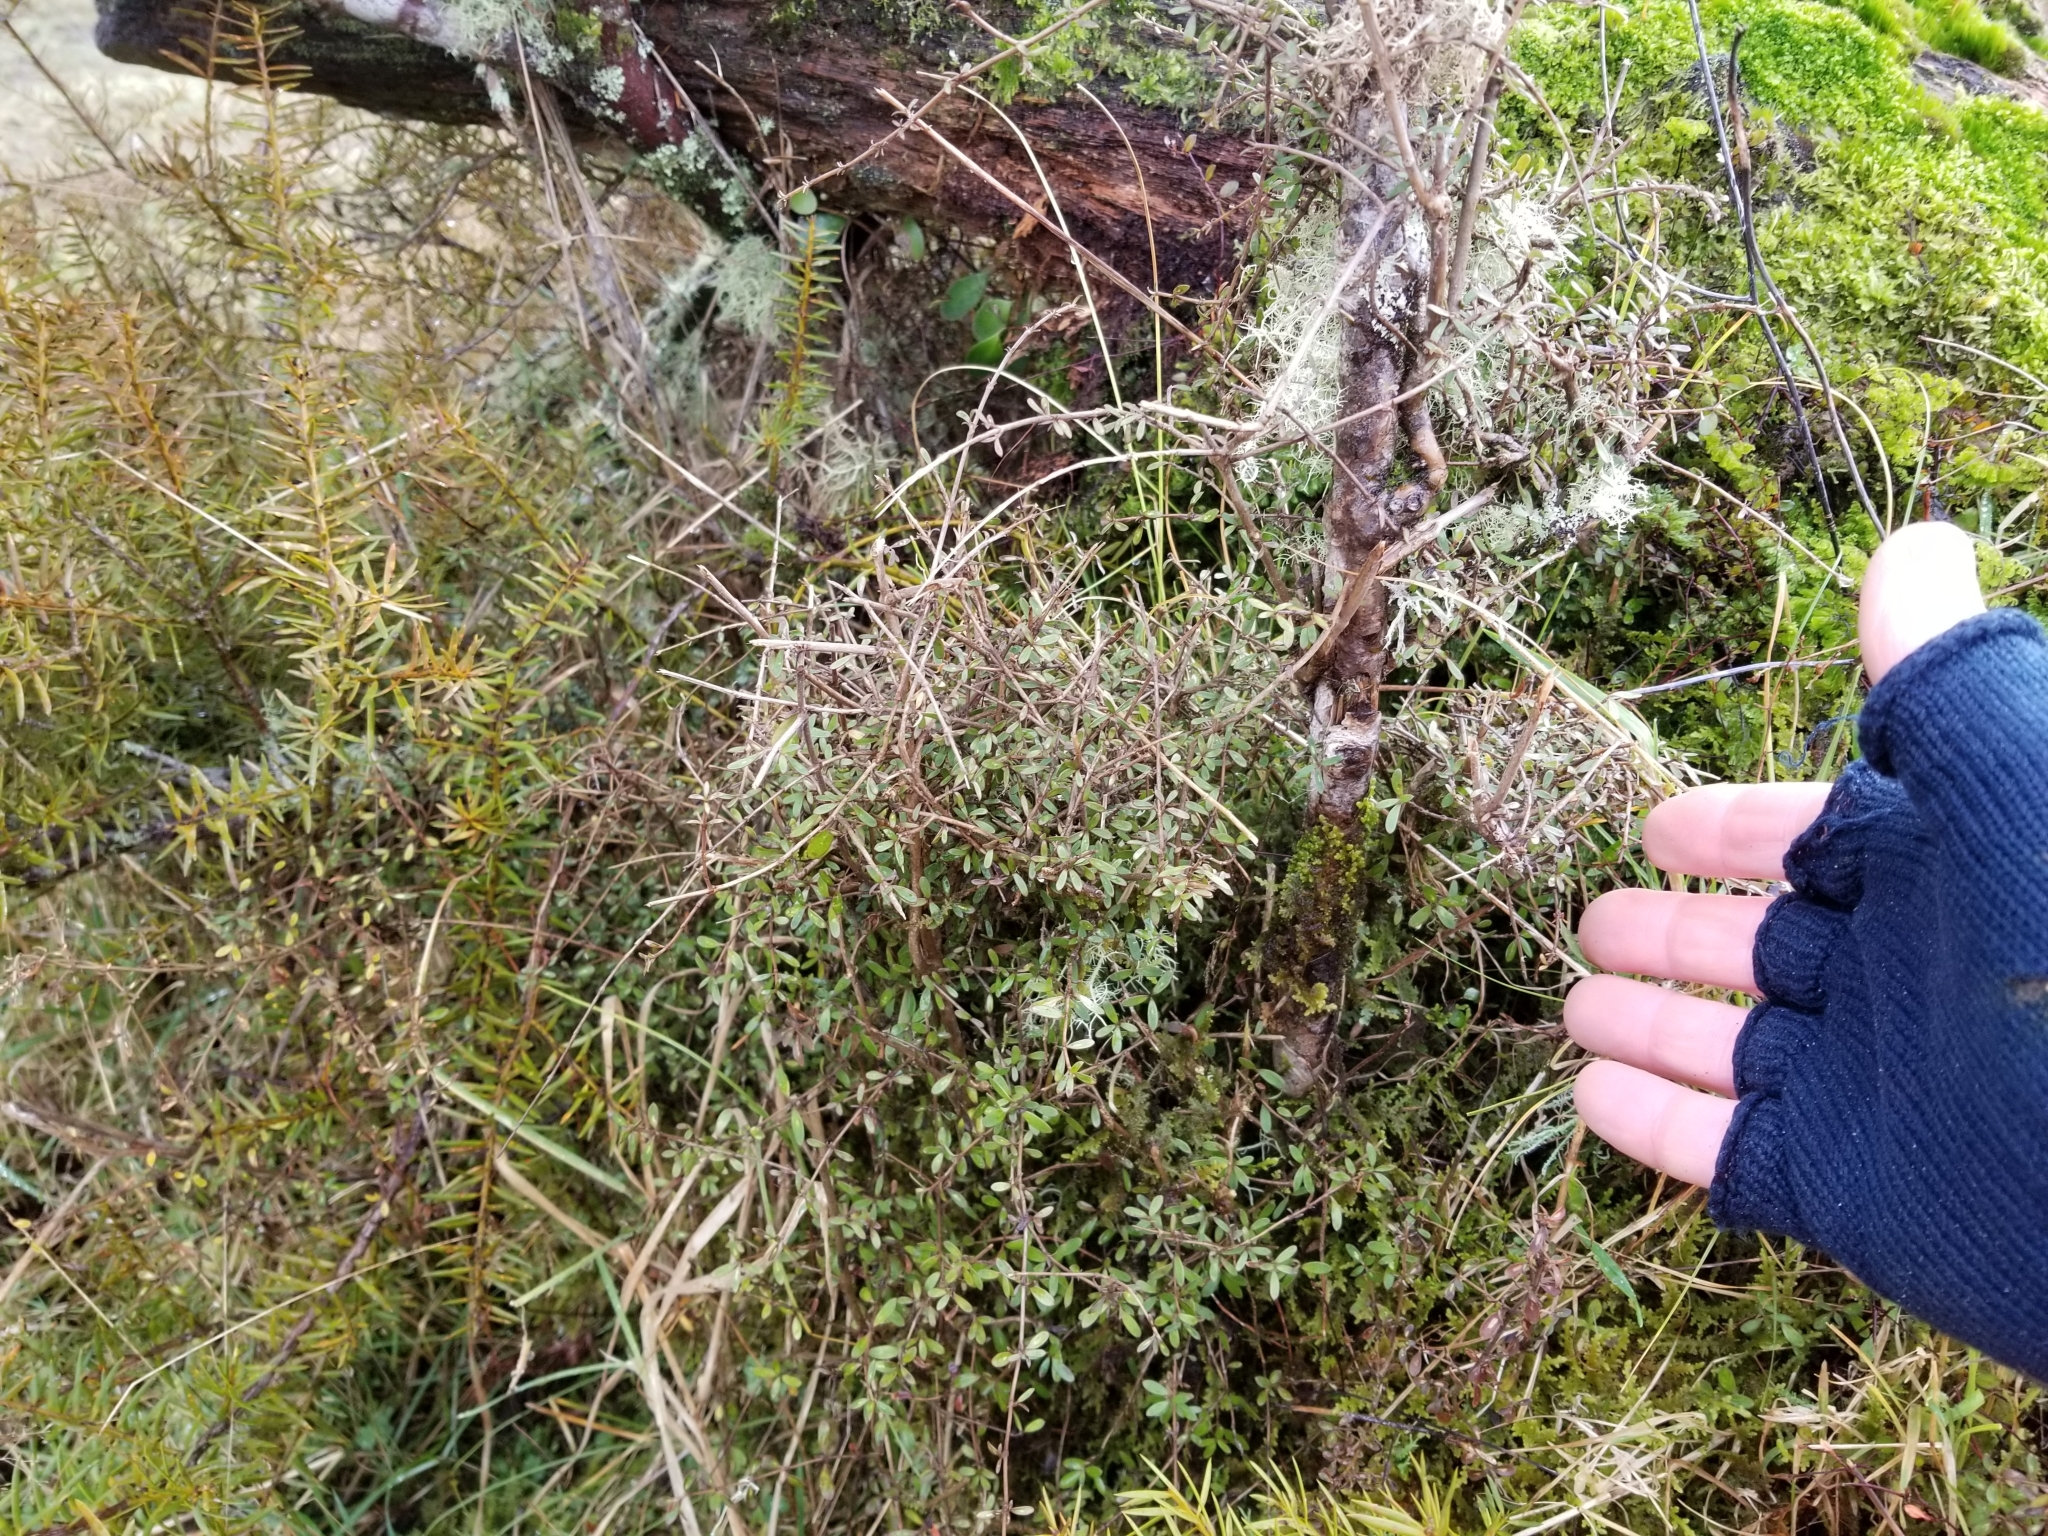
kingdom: Plantae
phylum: Tracheophyta
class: Magnoliopsida
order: Gentianales
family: Rubiaceae
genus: Coprosma
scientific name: Coprosma propinqua
